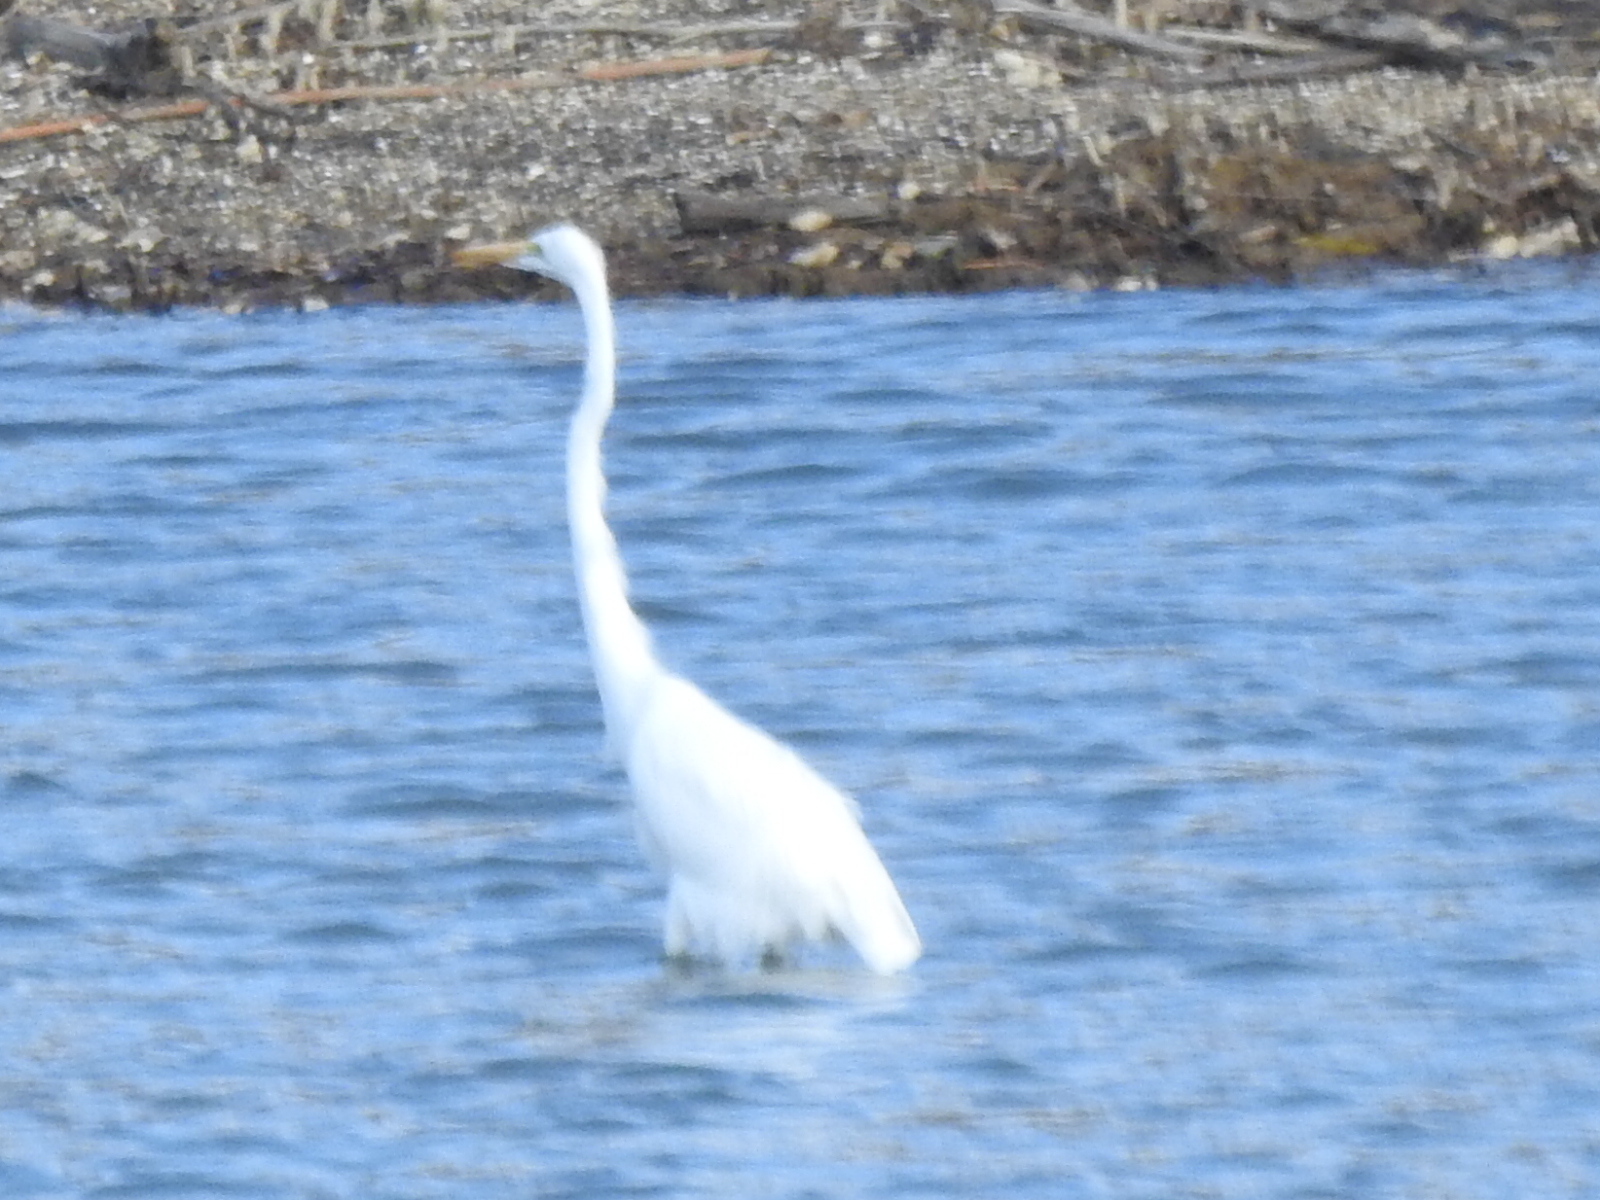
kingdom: Animalia
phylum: Chordata
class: Aves
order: Pelecaniformes
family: Ardeidae
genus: Ardea
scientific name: Ardea alba
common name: Great egret
